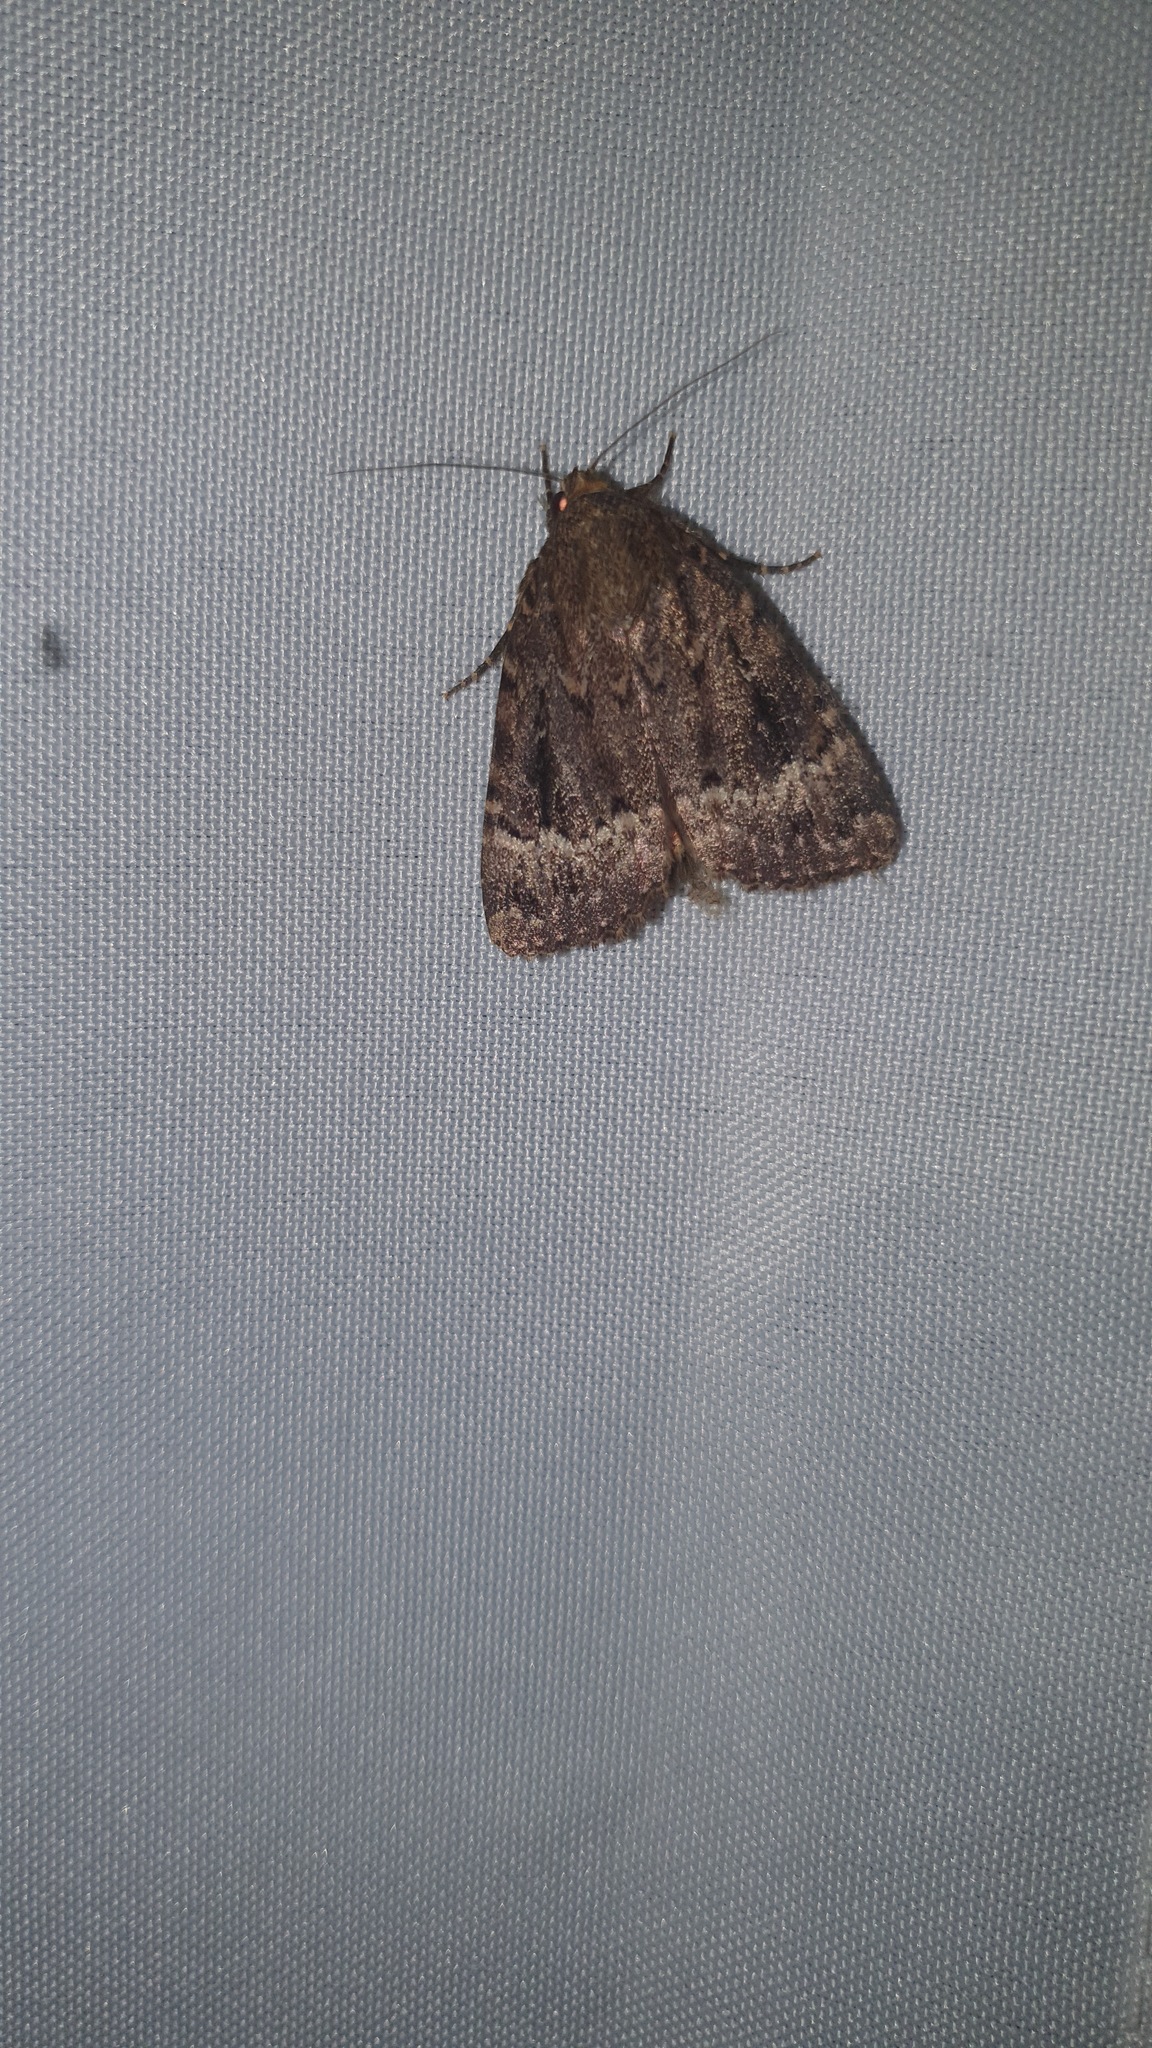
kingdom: Animalia
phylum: Arthropoda
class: Insecta
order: Lepidoptera
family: Noctuidae
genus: Amphipyra
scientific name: Amphipyra pyramidea
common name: Copper underwing
